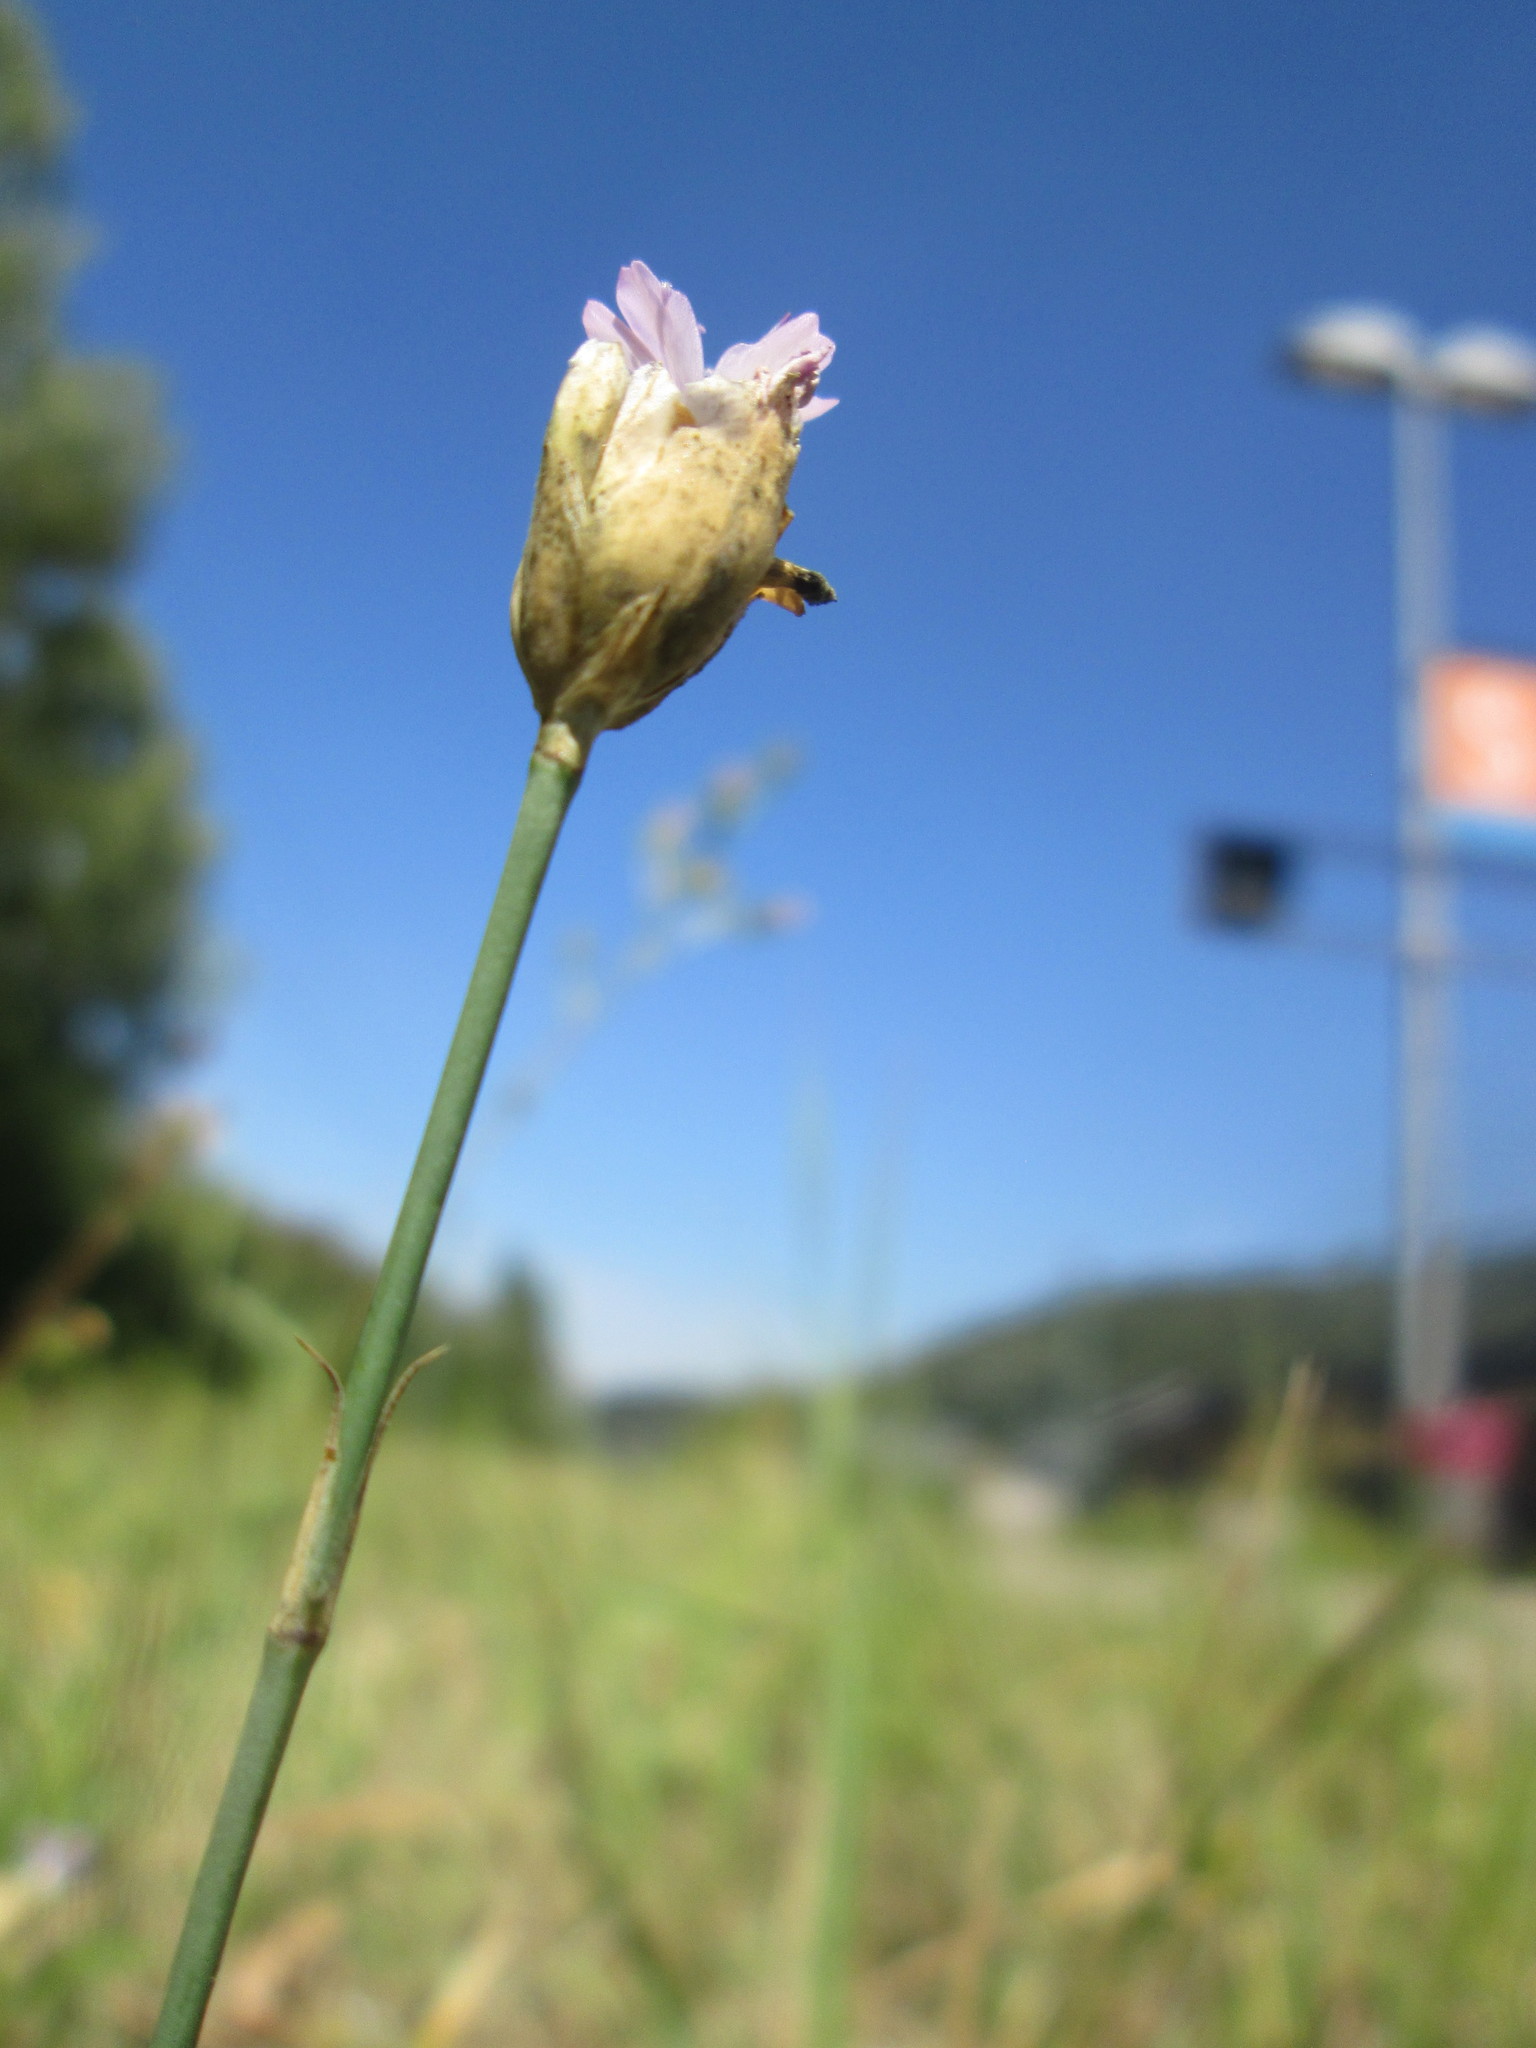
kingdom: Plantae
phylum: Tracheophyta
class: Magnoliopsida
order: Caryophyllales
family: Caryophyllaceae
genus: Petrorhagia
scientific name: Petrorhagia prolifera
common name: Proliferous pink
